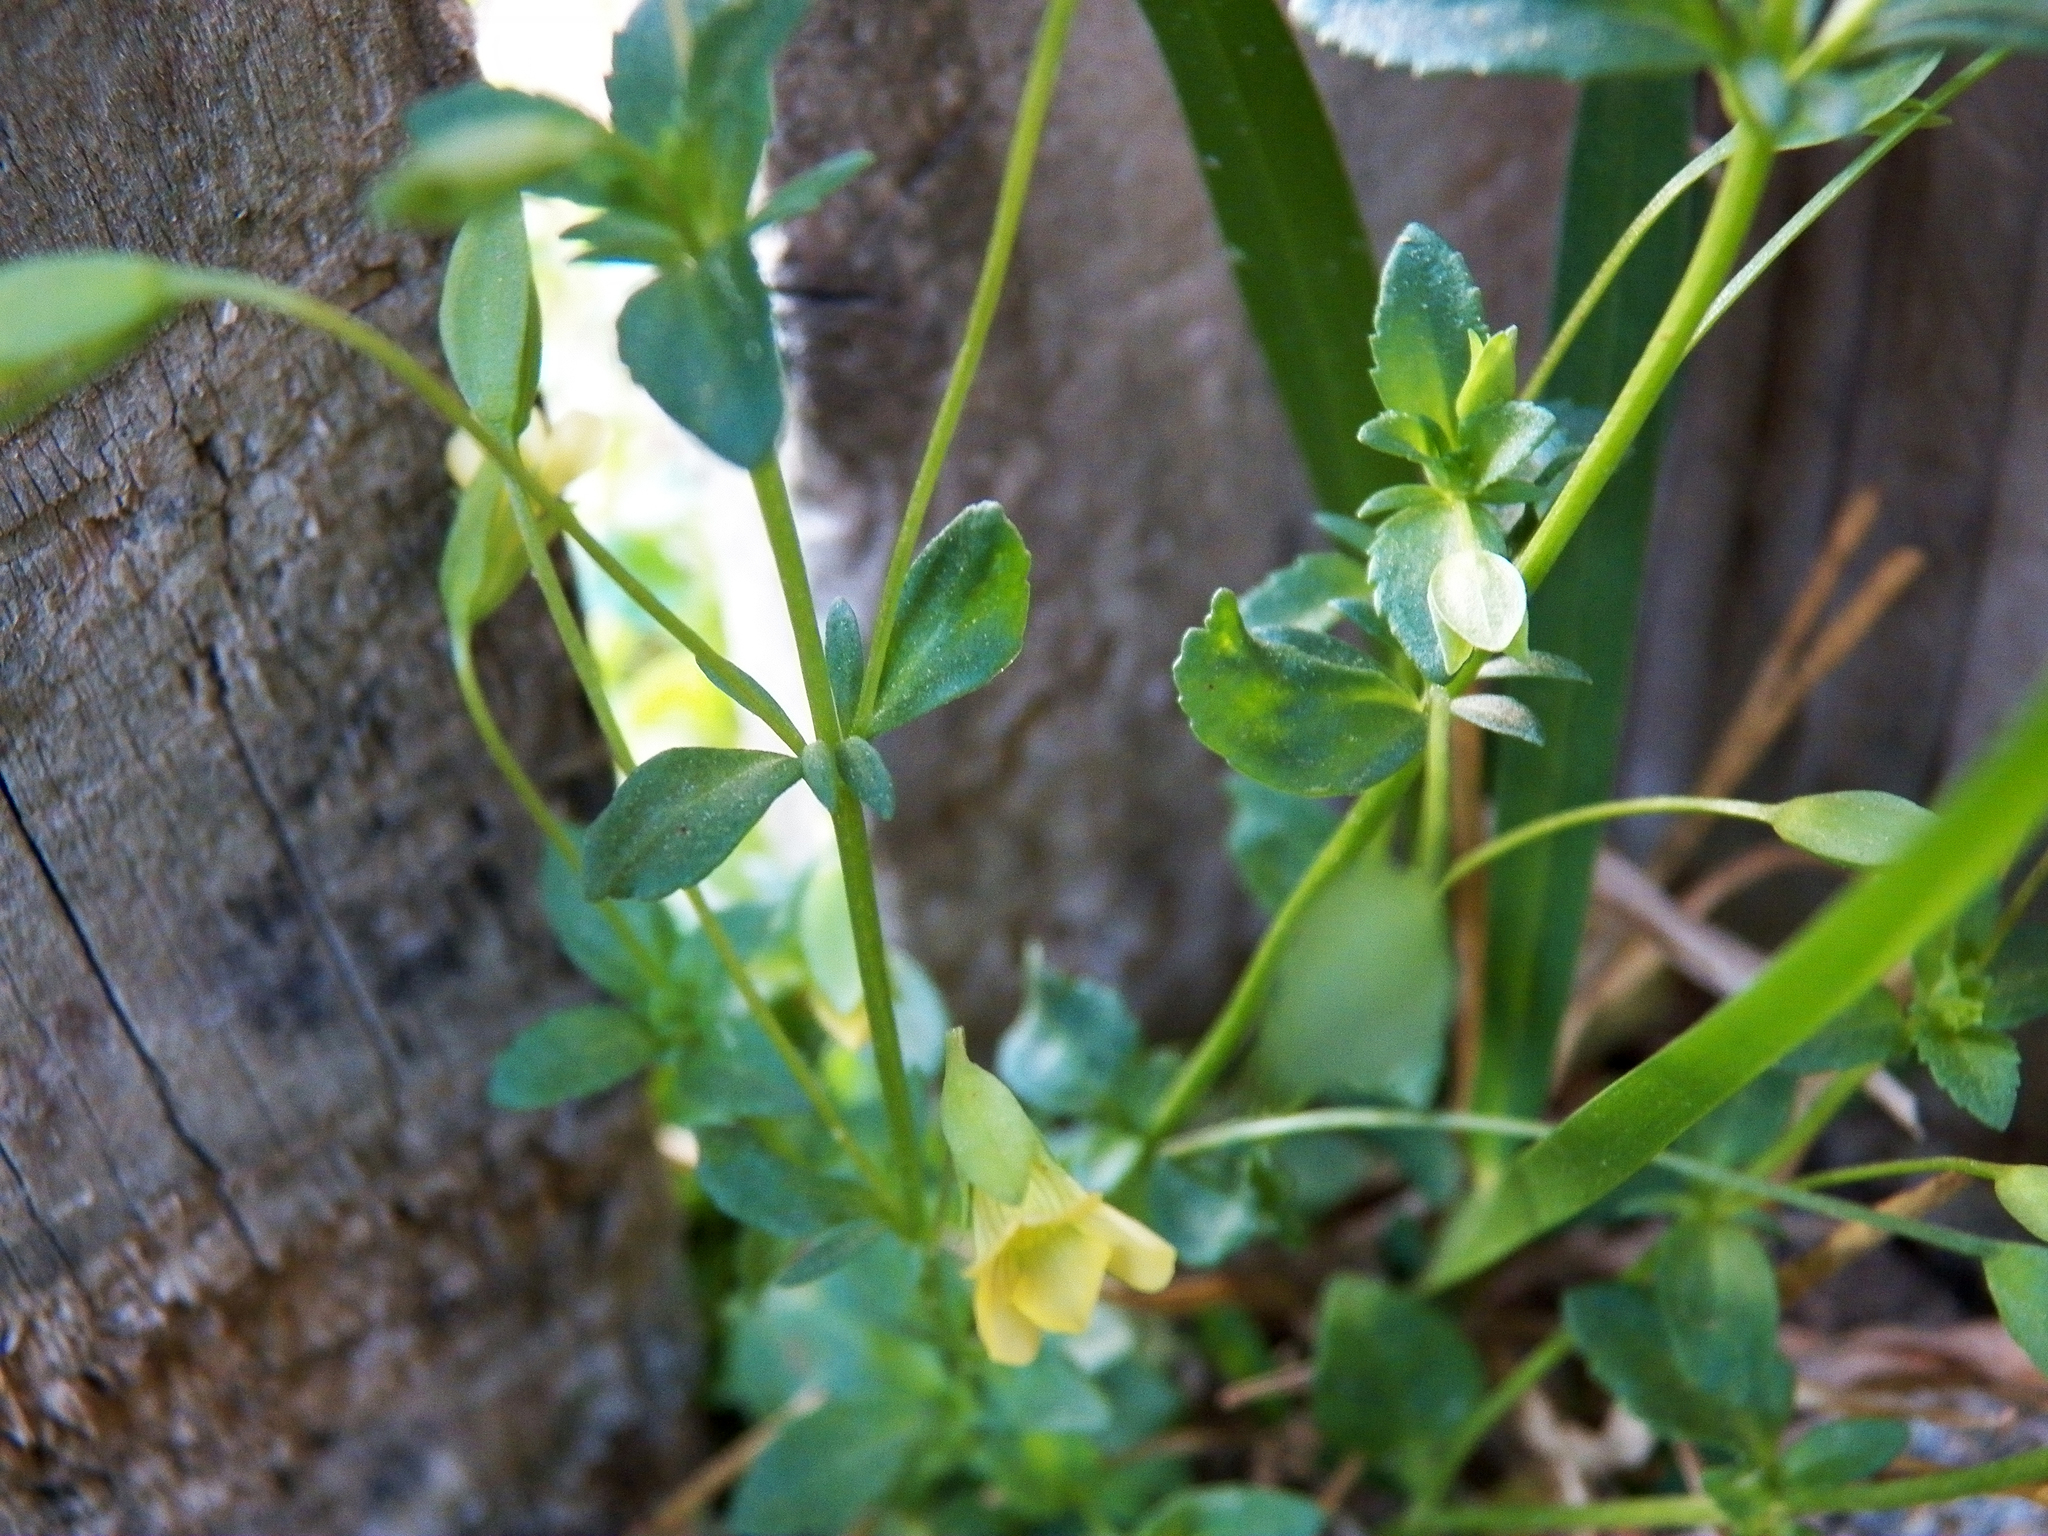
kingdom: Plantae
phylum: Tracheophyta
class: Magnoliopsida
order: Lamiales
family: Plantaginaceae
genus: Mecardonia
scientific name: Mecardonia procumbens
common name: Baby jump-up
